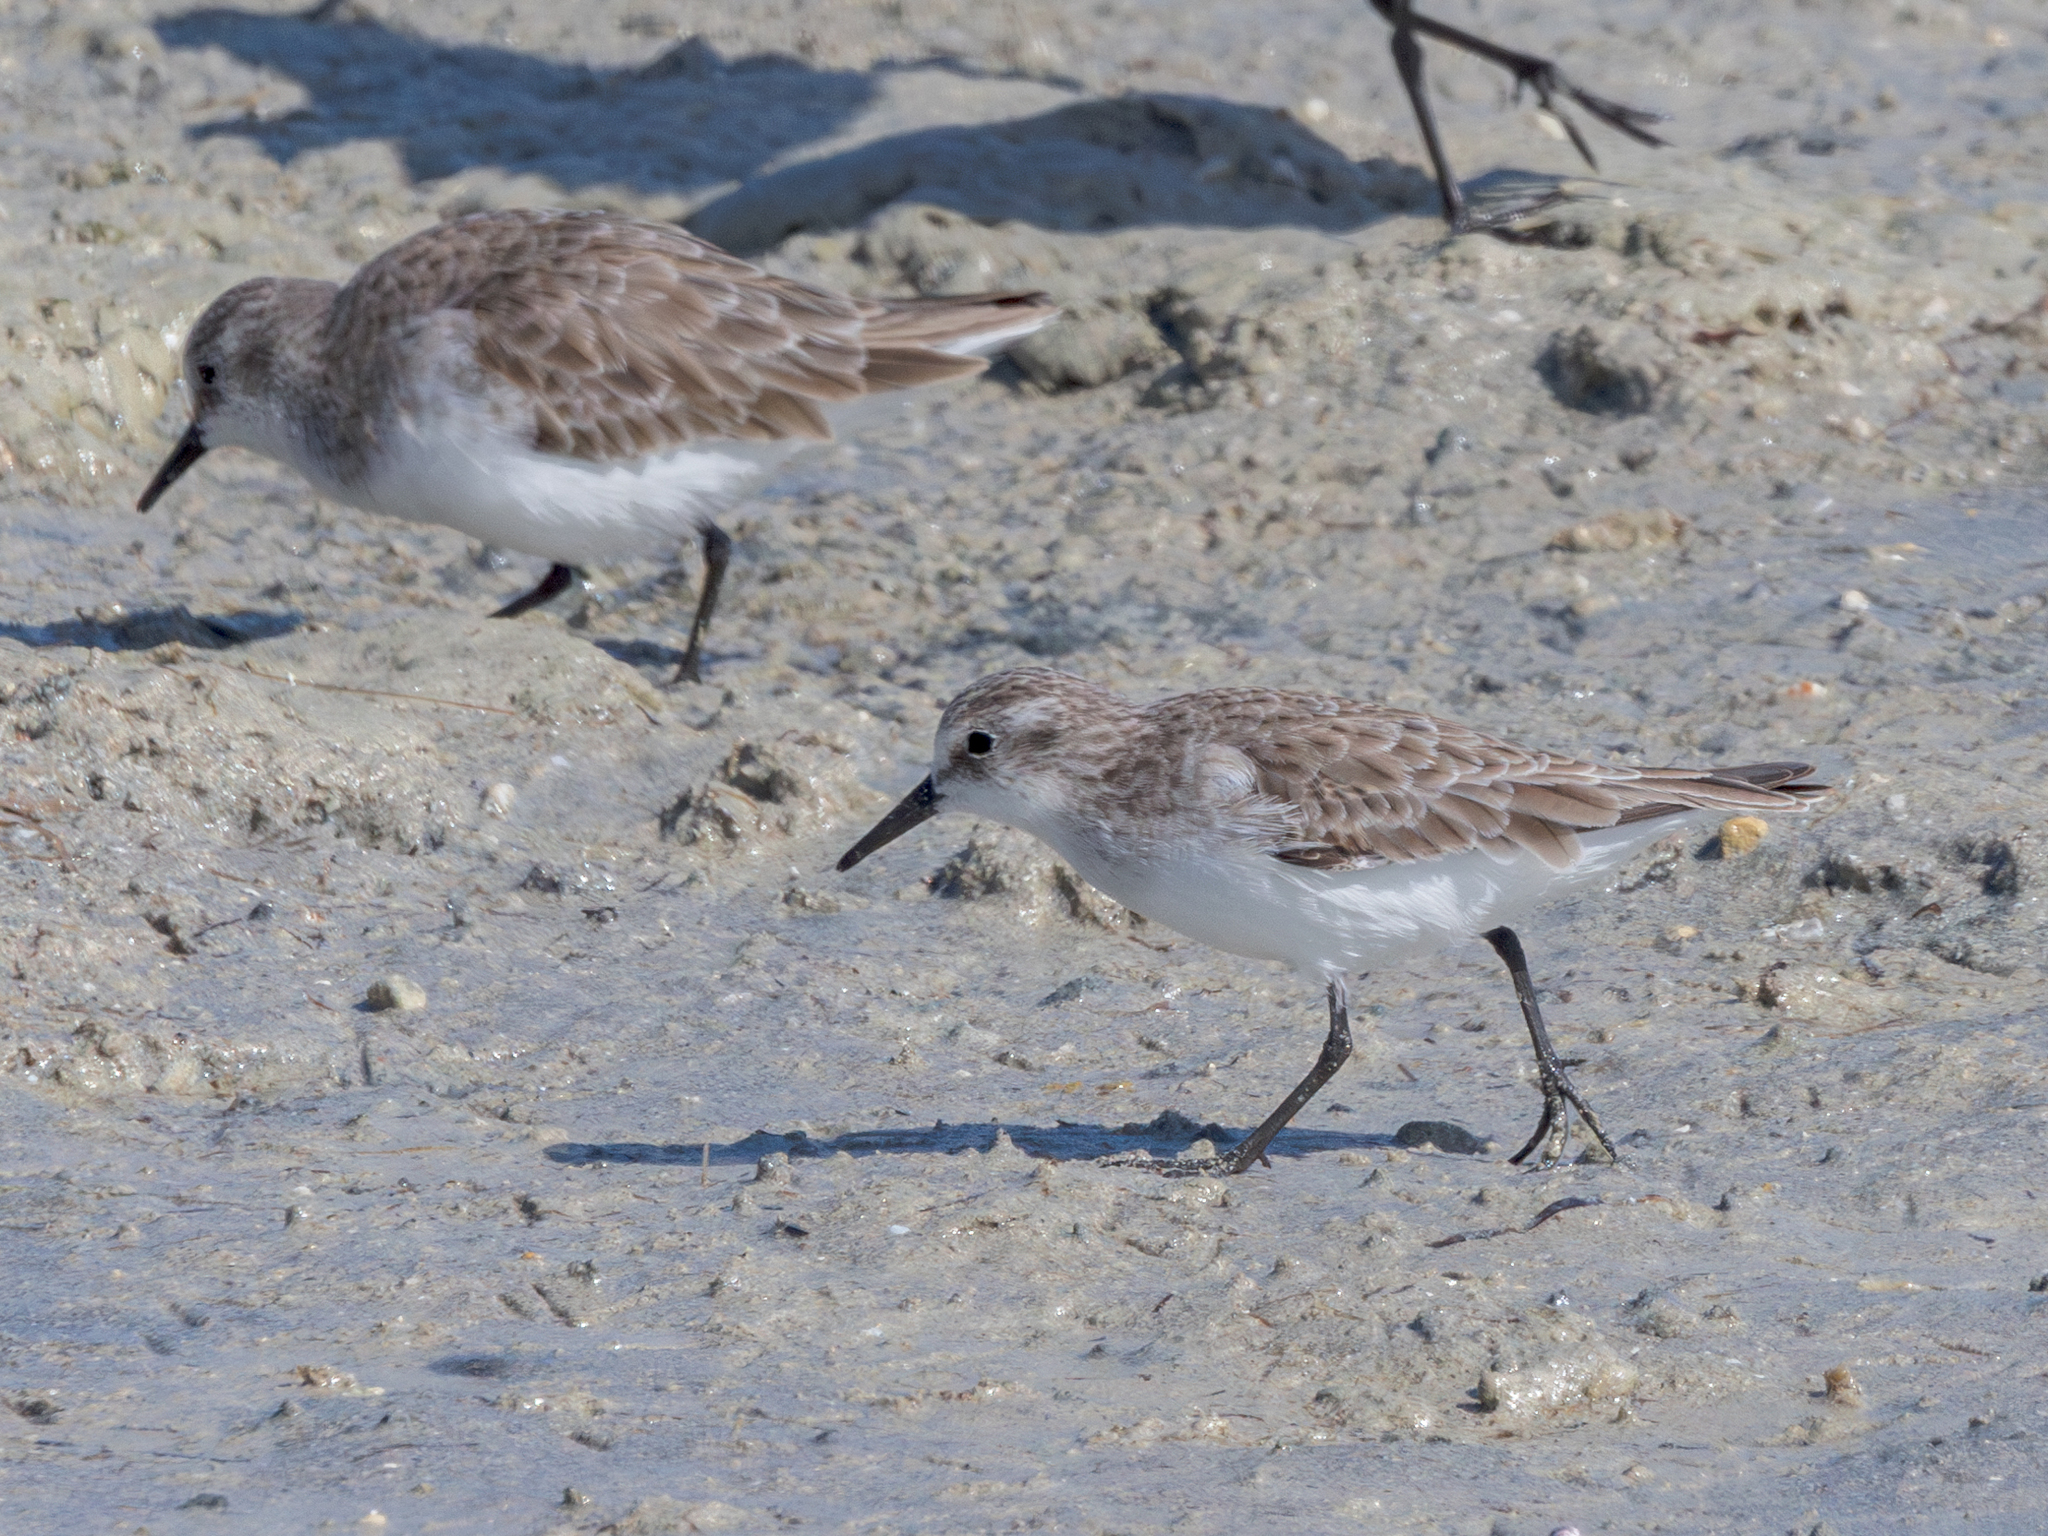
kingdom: Animalia
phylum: Chordata
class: Aves
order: Charadriiformes
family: Scolopacidae
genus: Calidris
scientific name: Calidris minuta
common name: Little stint
